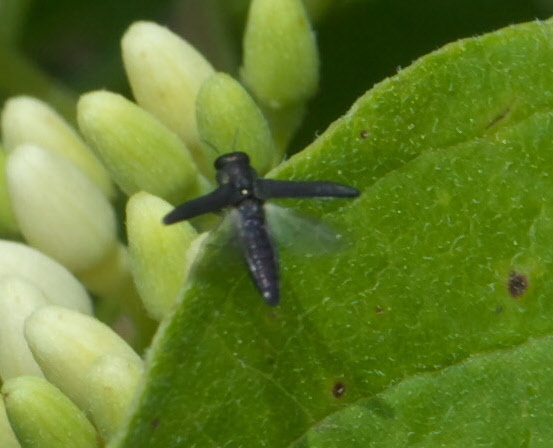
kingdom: Animalia
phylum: Arthropoda
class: Insecta
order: Coleoptera
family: Buprestidae
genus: Agrilaxia
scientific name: Agrilaxia flavimana
